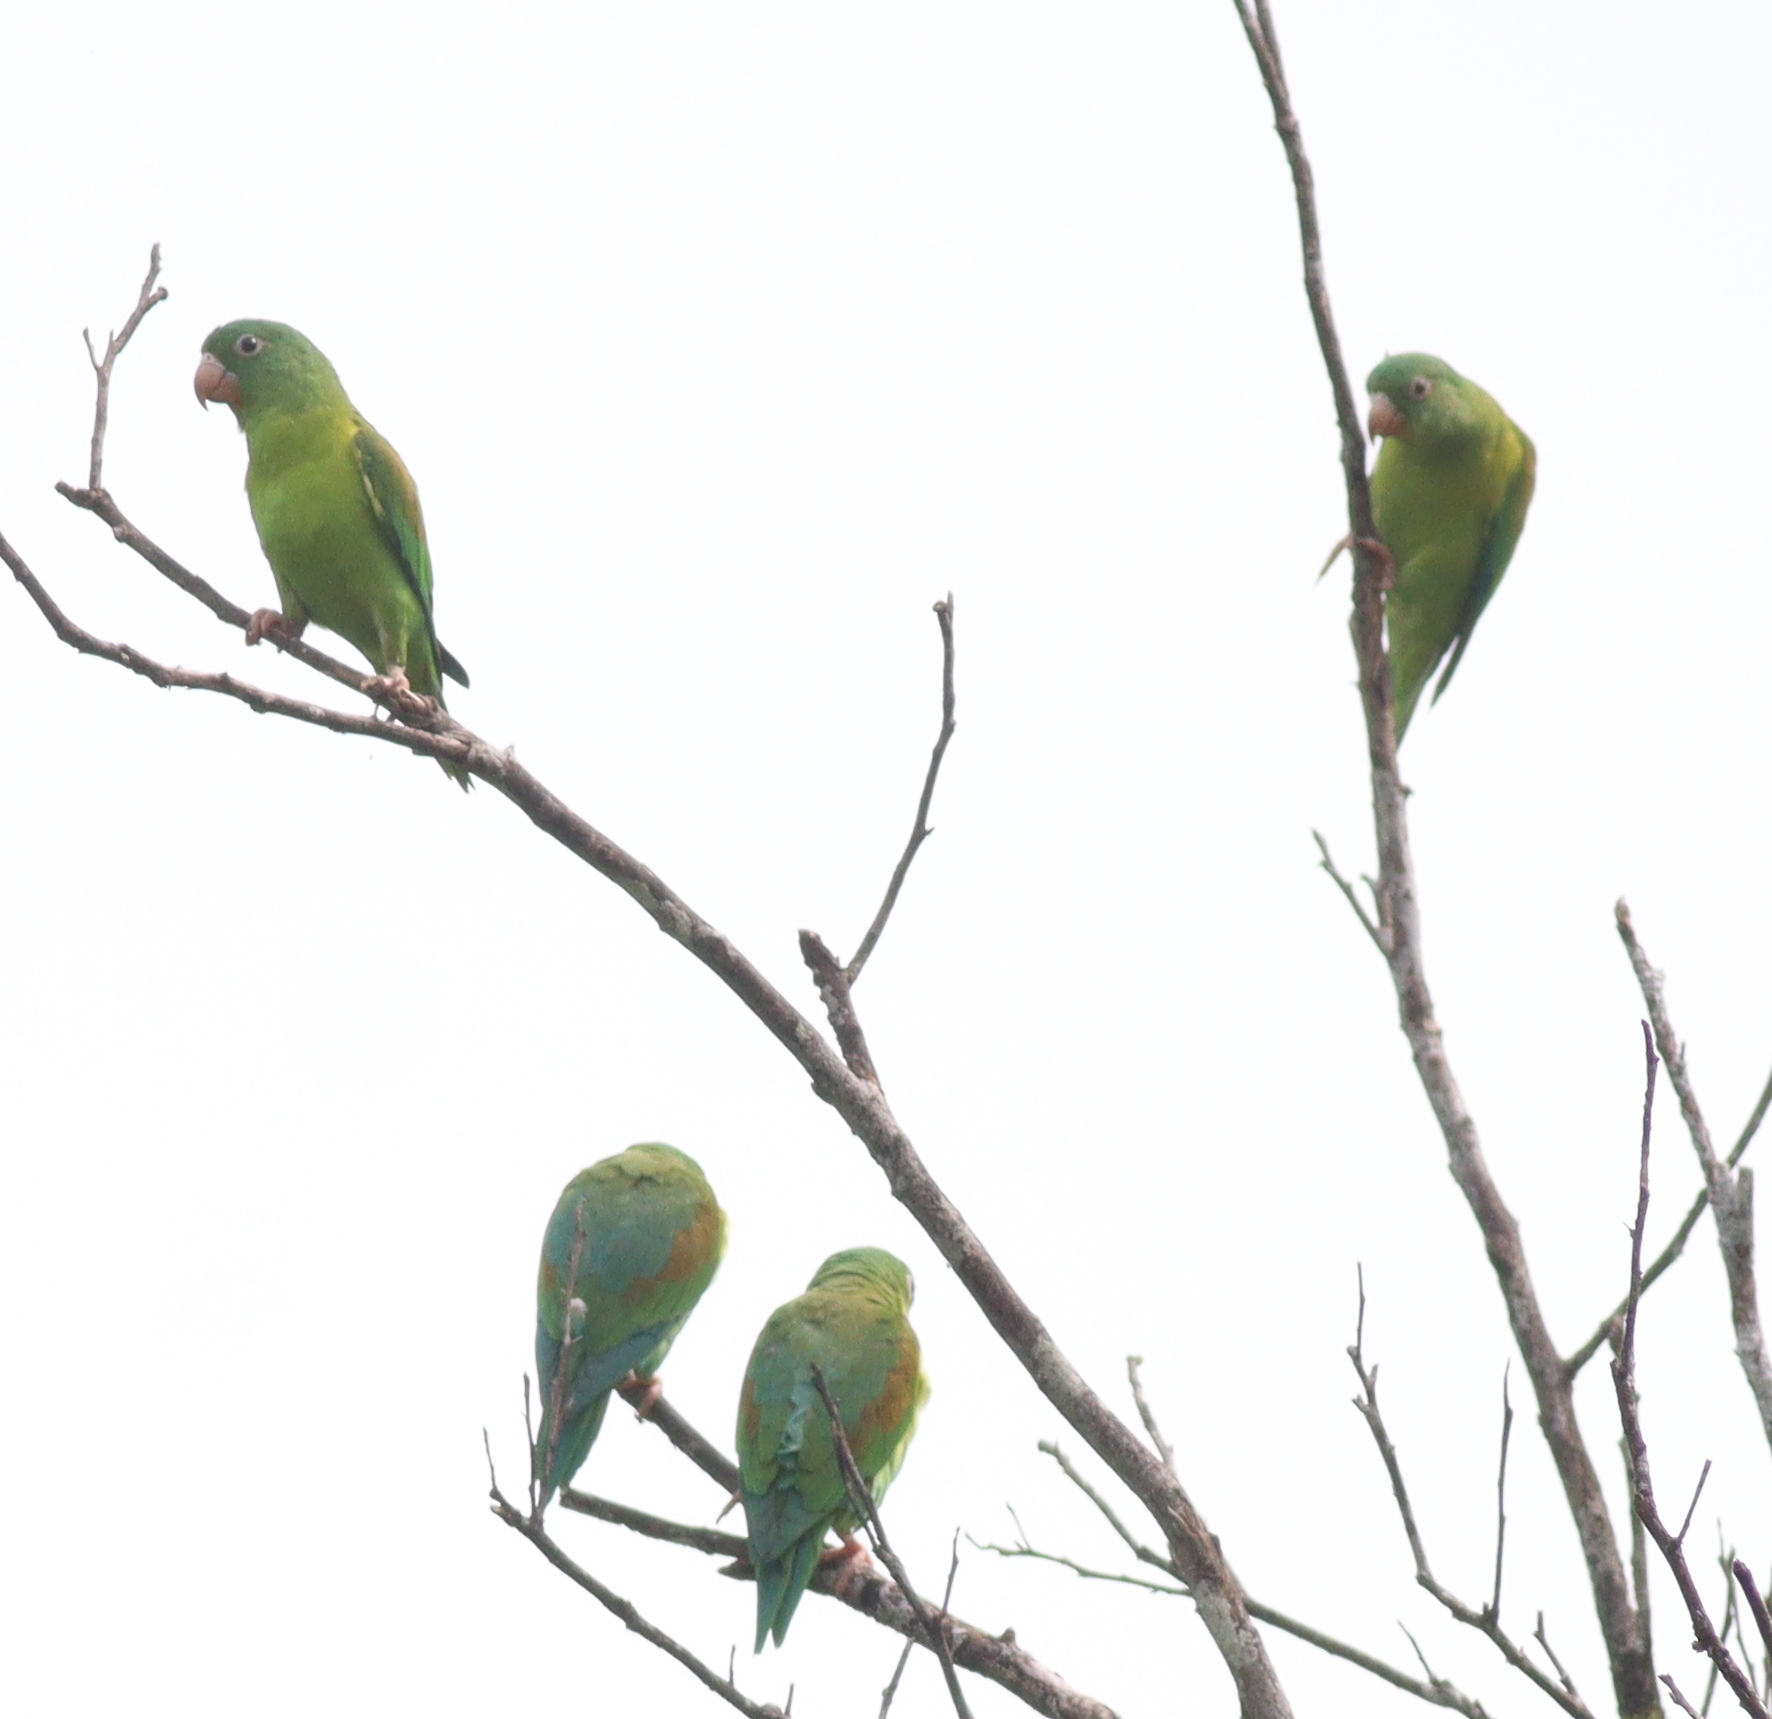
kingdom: Animalia
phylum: Chordata
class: Aves
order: Psittaciformes
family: Psittacidae
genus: Brotogeris
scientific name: Brotogeris jugularis
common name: Orange-chinned parakeet
